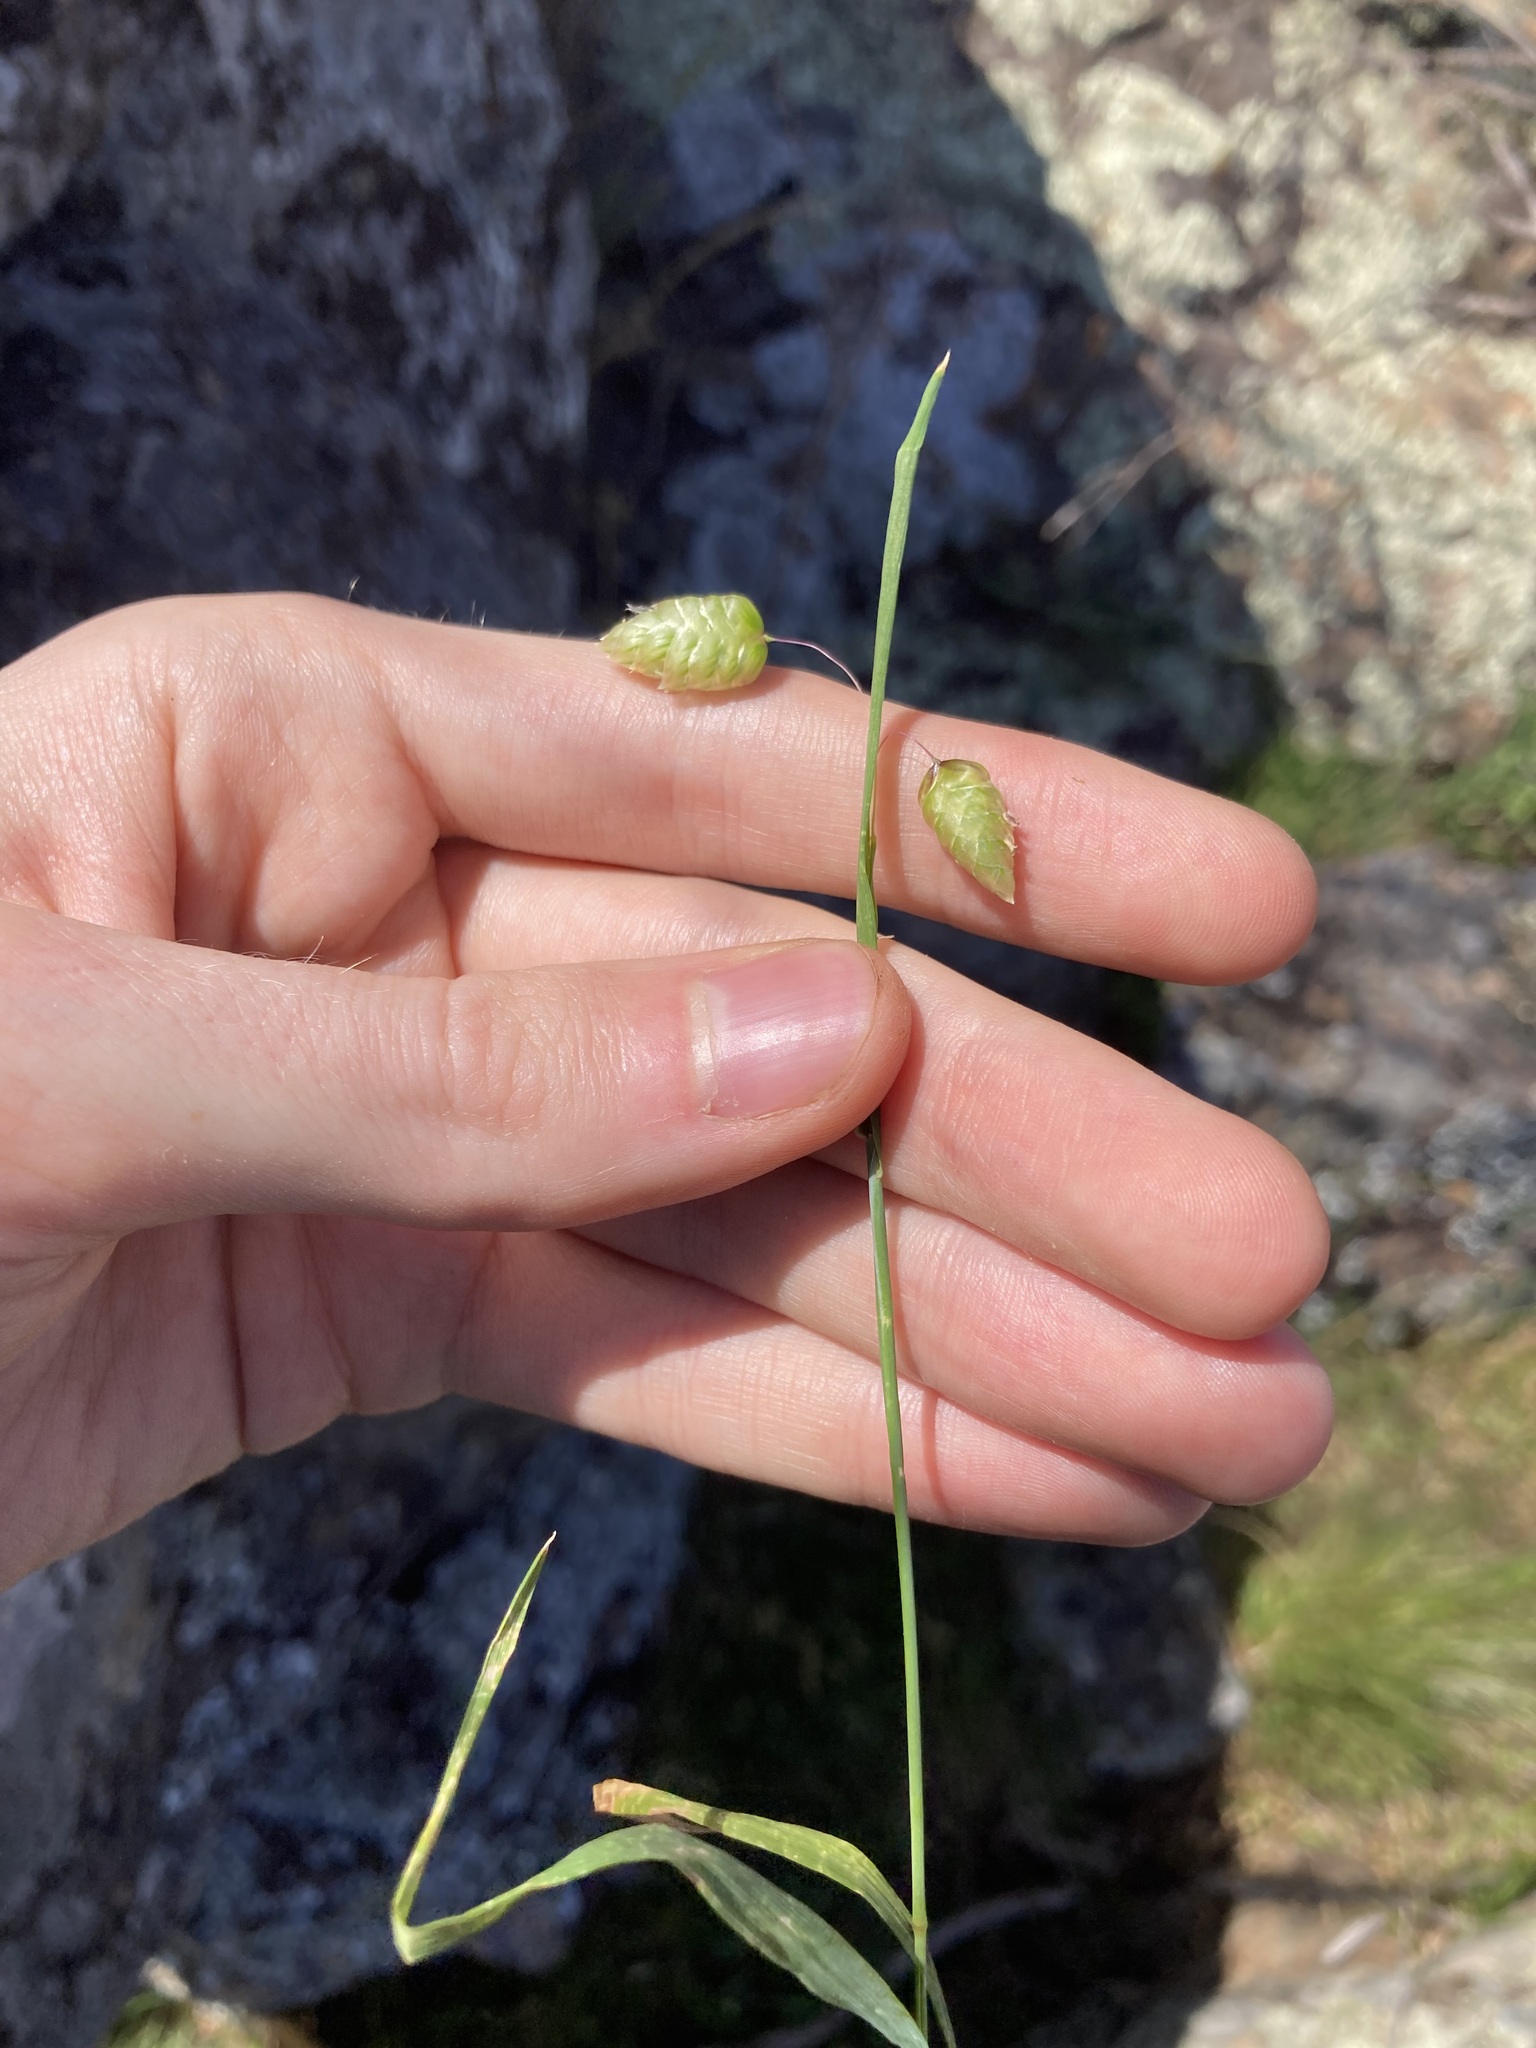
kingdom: Plantae
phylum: Tracheophyta
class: Liliopsida
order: Poales
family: Poaceae
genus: Briza
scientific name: Briza maxima
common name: Big quakinggrass
